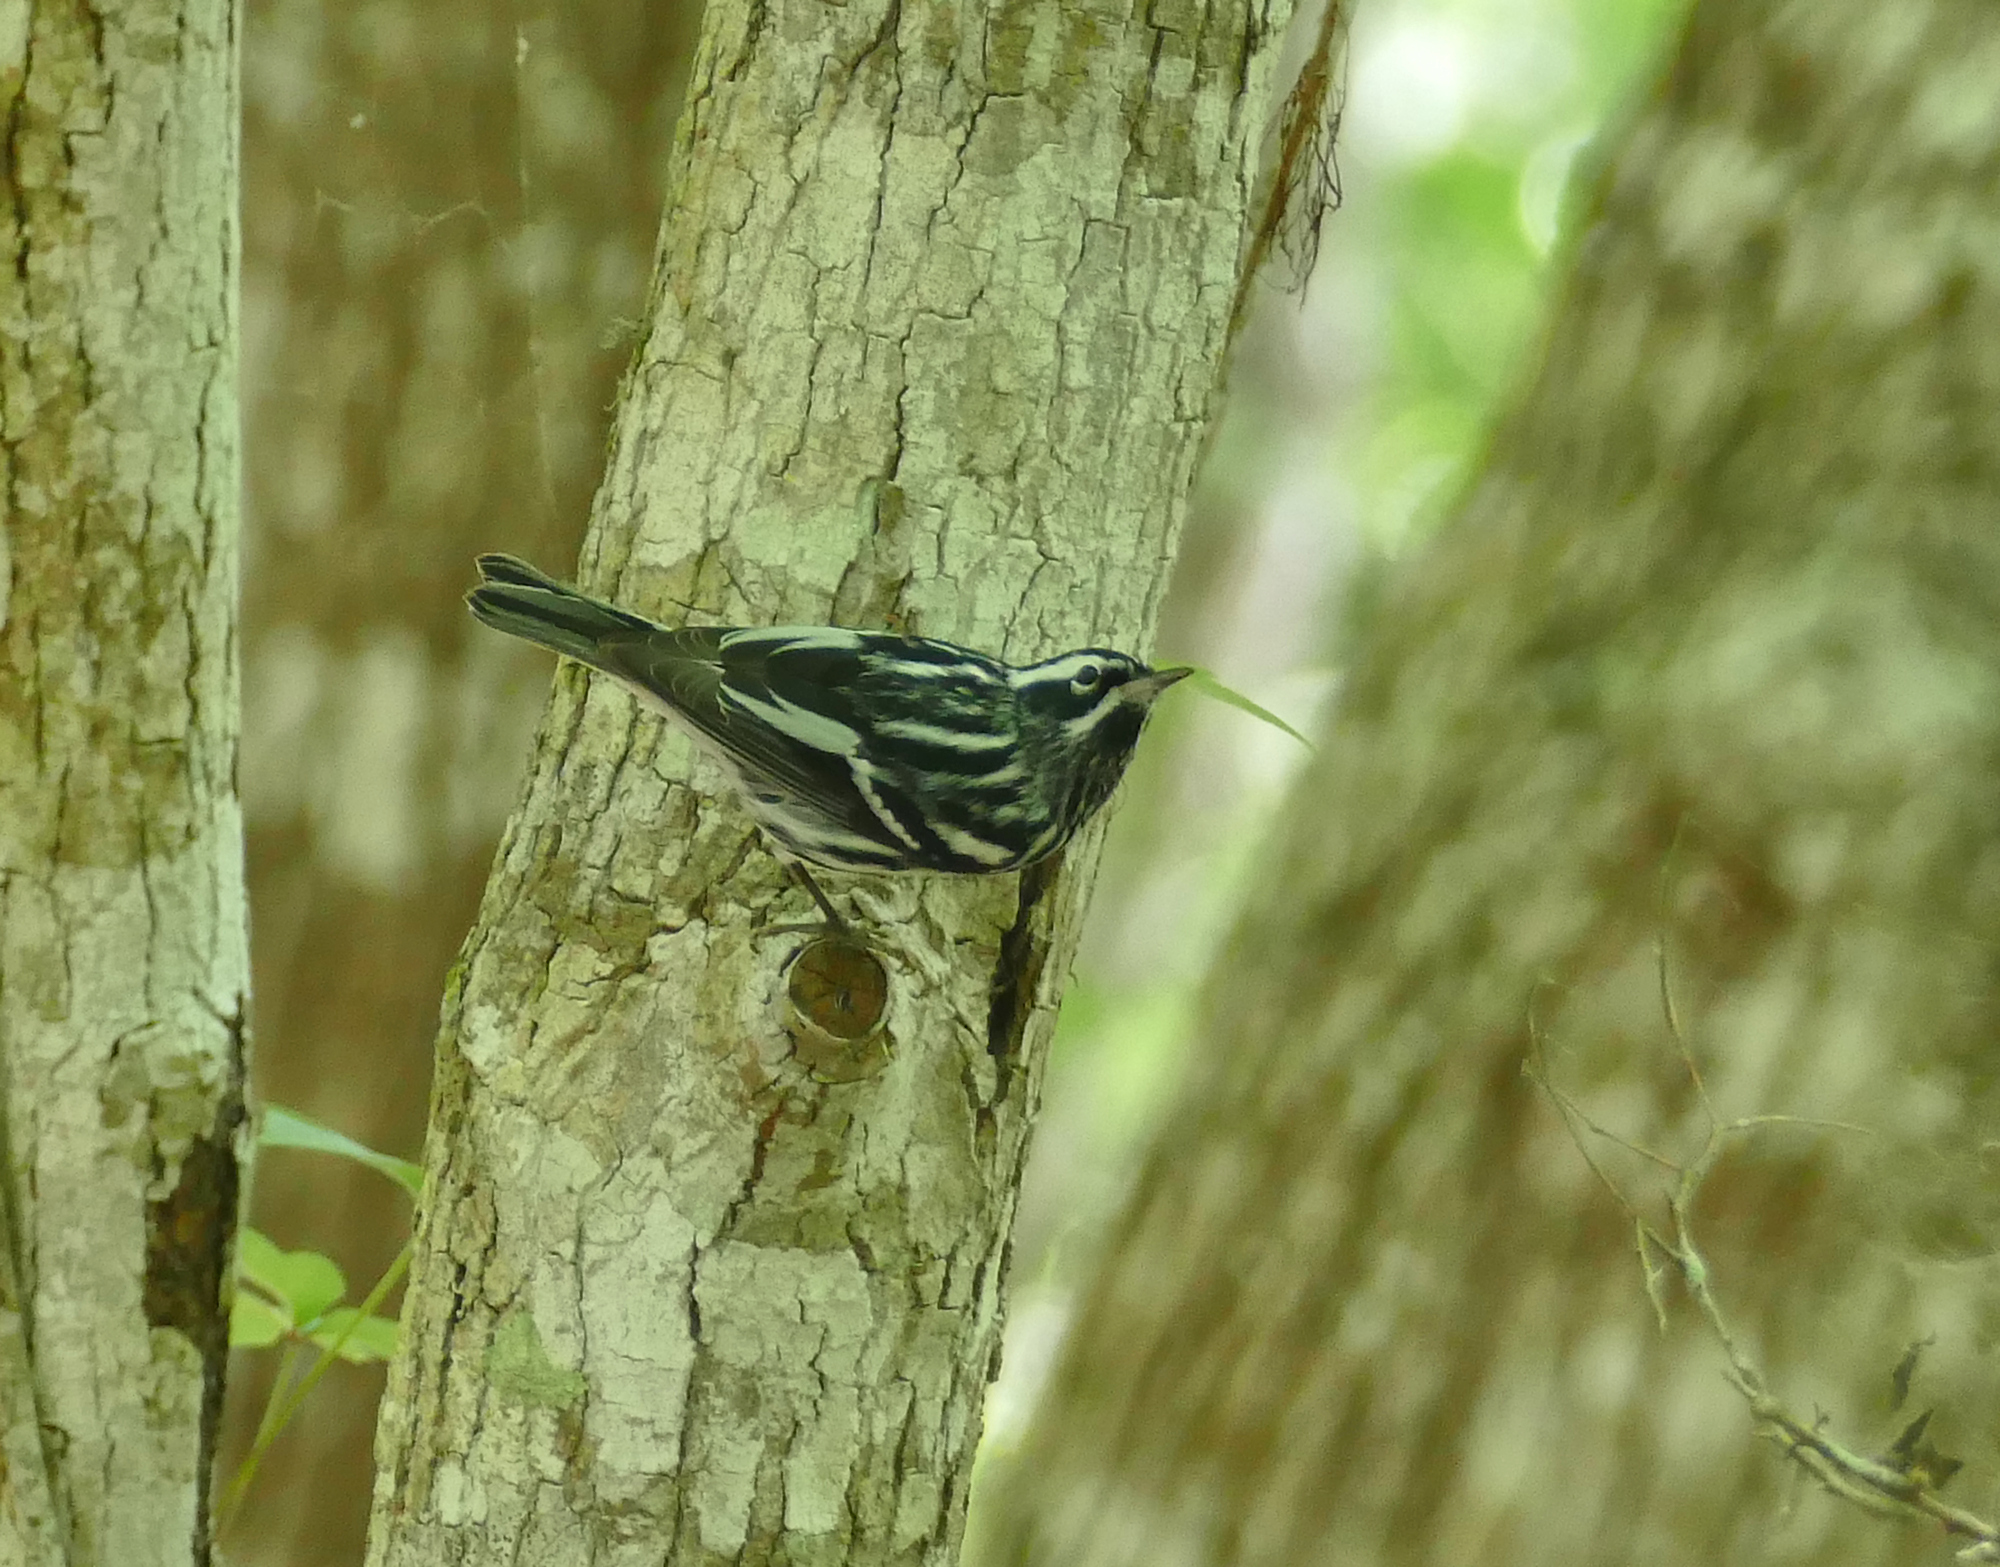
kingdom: Animalia
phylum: Chordata
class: Aves
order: Passeriformes
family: Parulidae
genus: Mniotilta
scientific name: Mniotilta varia
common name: Black-and-white warbler
